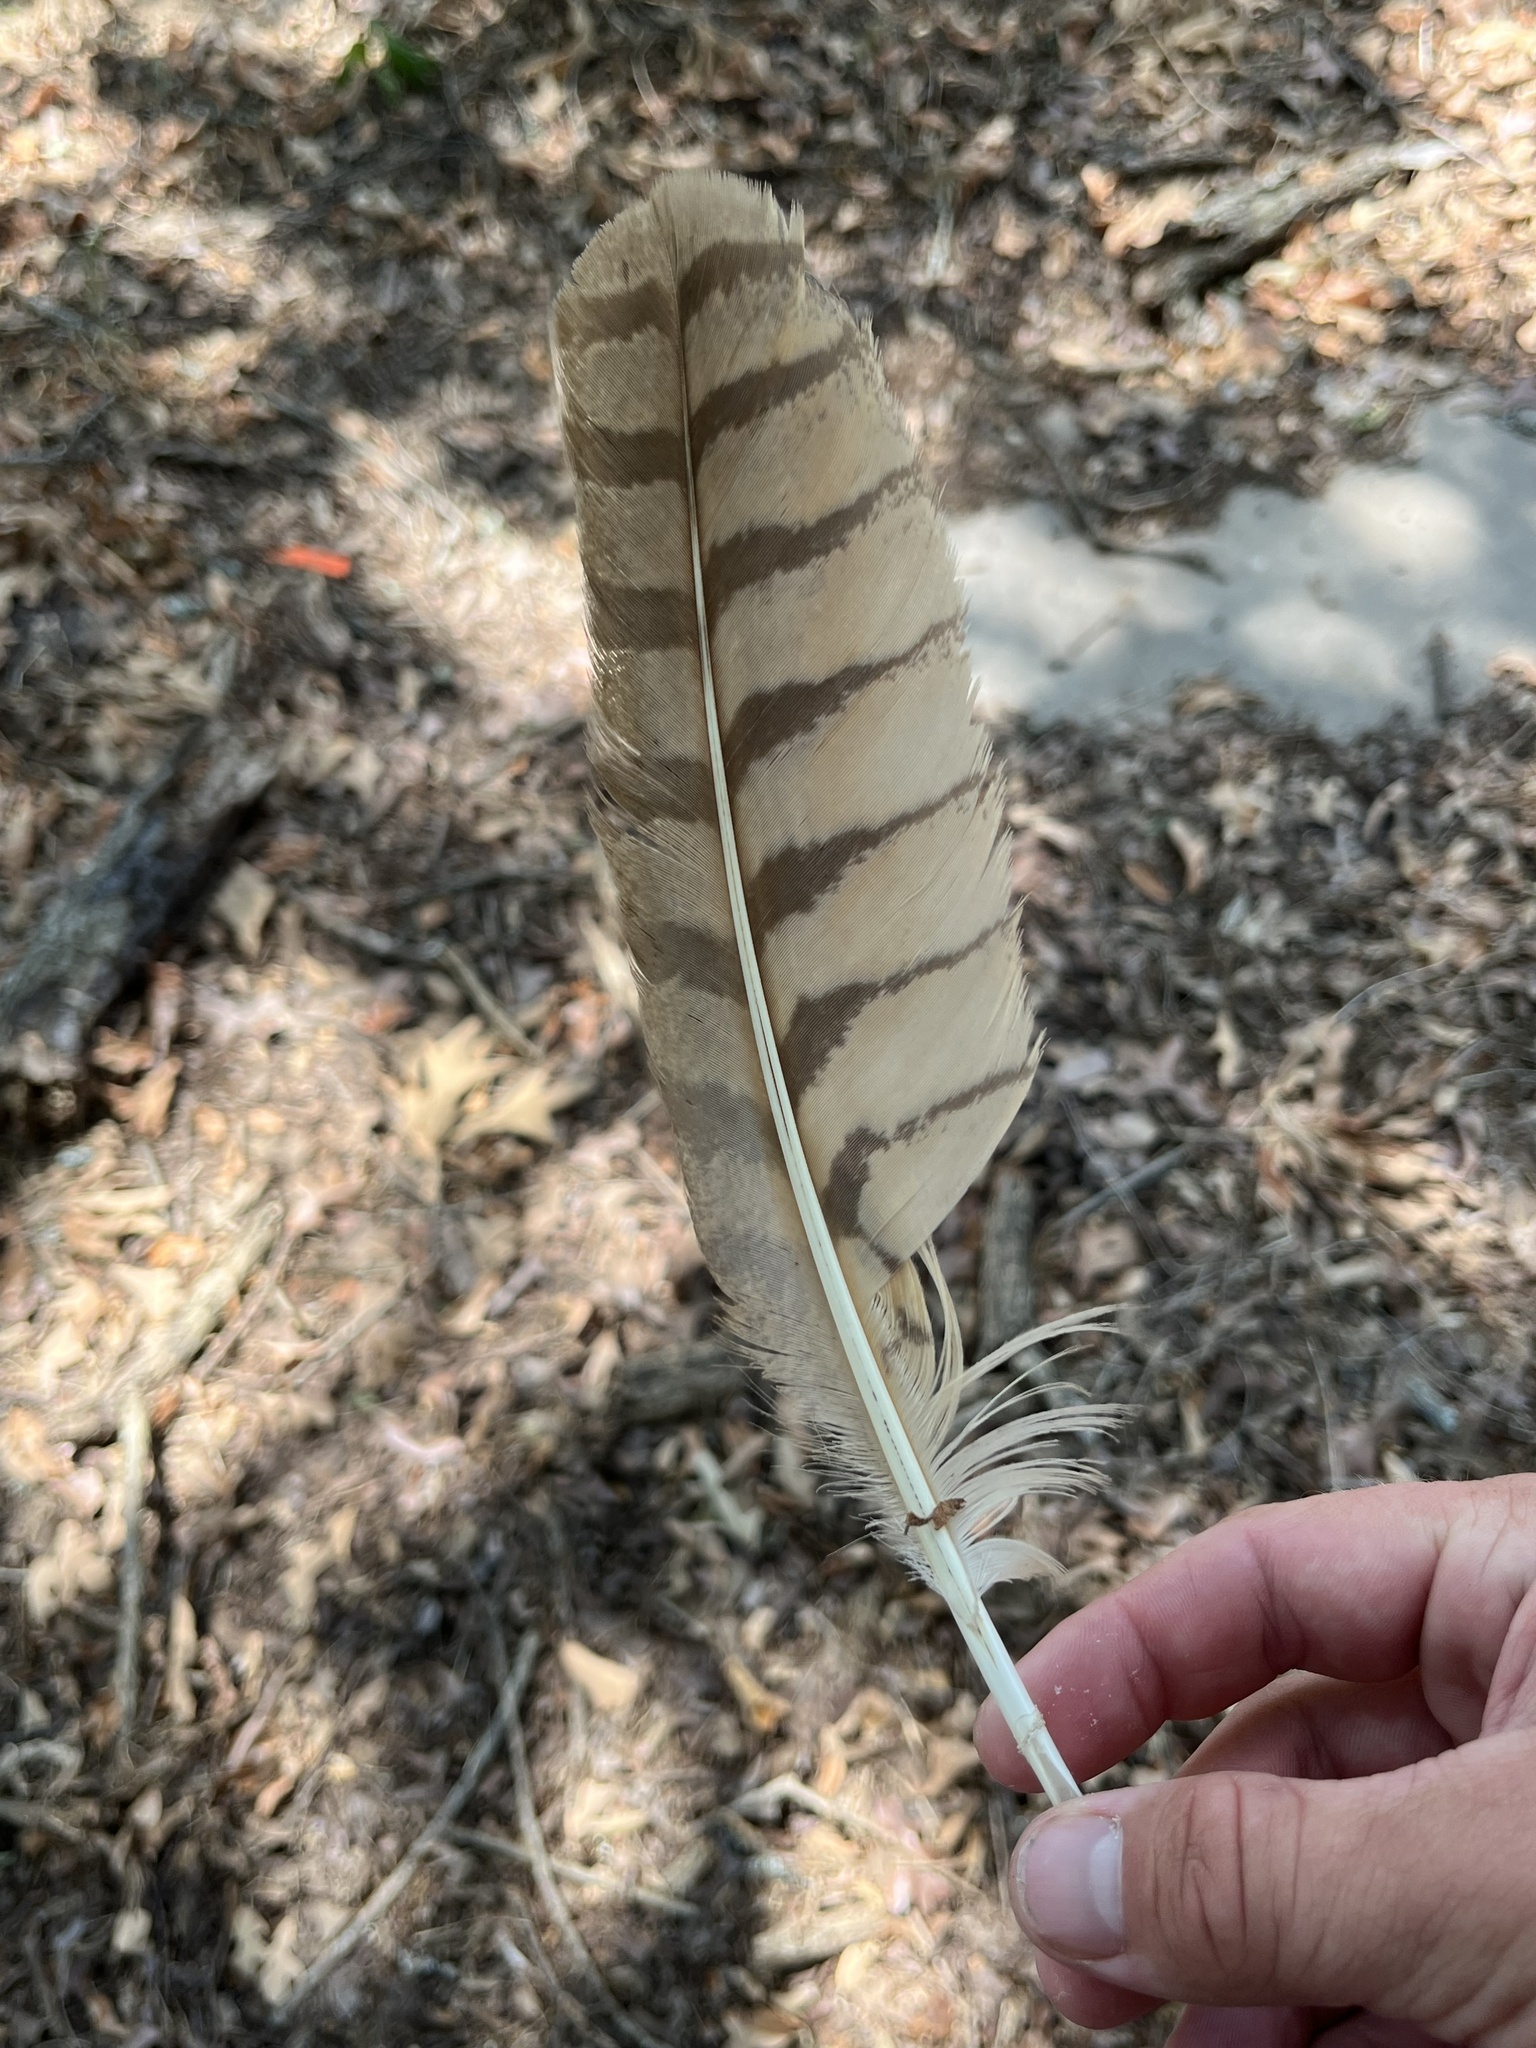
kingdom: Animalia
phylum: Chordata
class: Aves
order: Strigiformes
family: Strigidae
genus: Bubo
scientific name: Bubo virginianus
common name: Great horned owl
